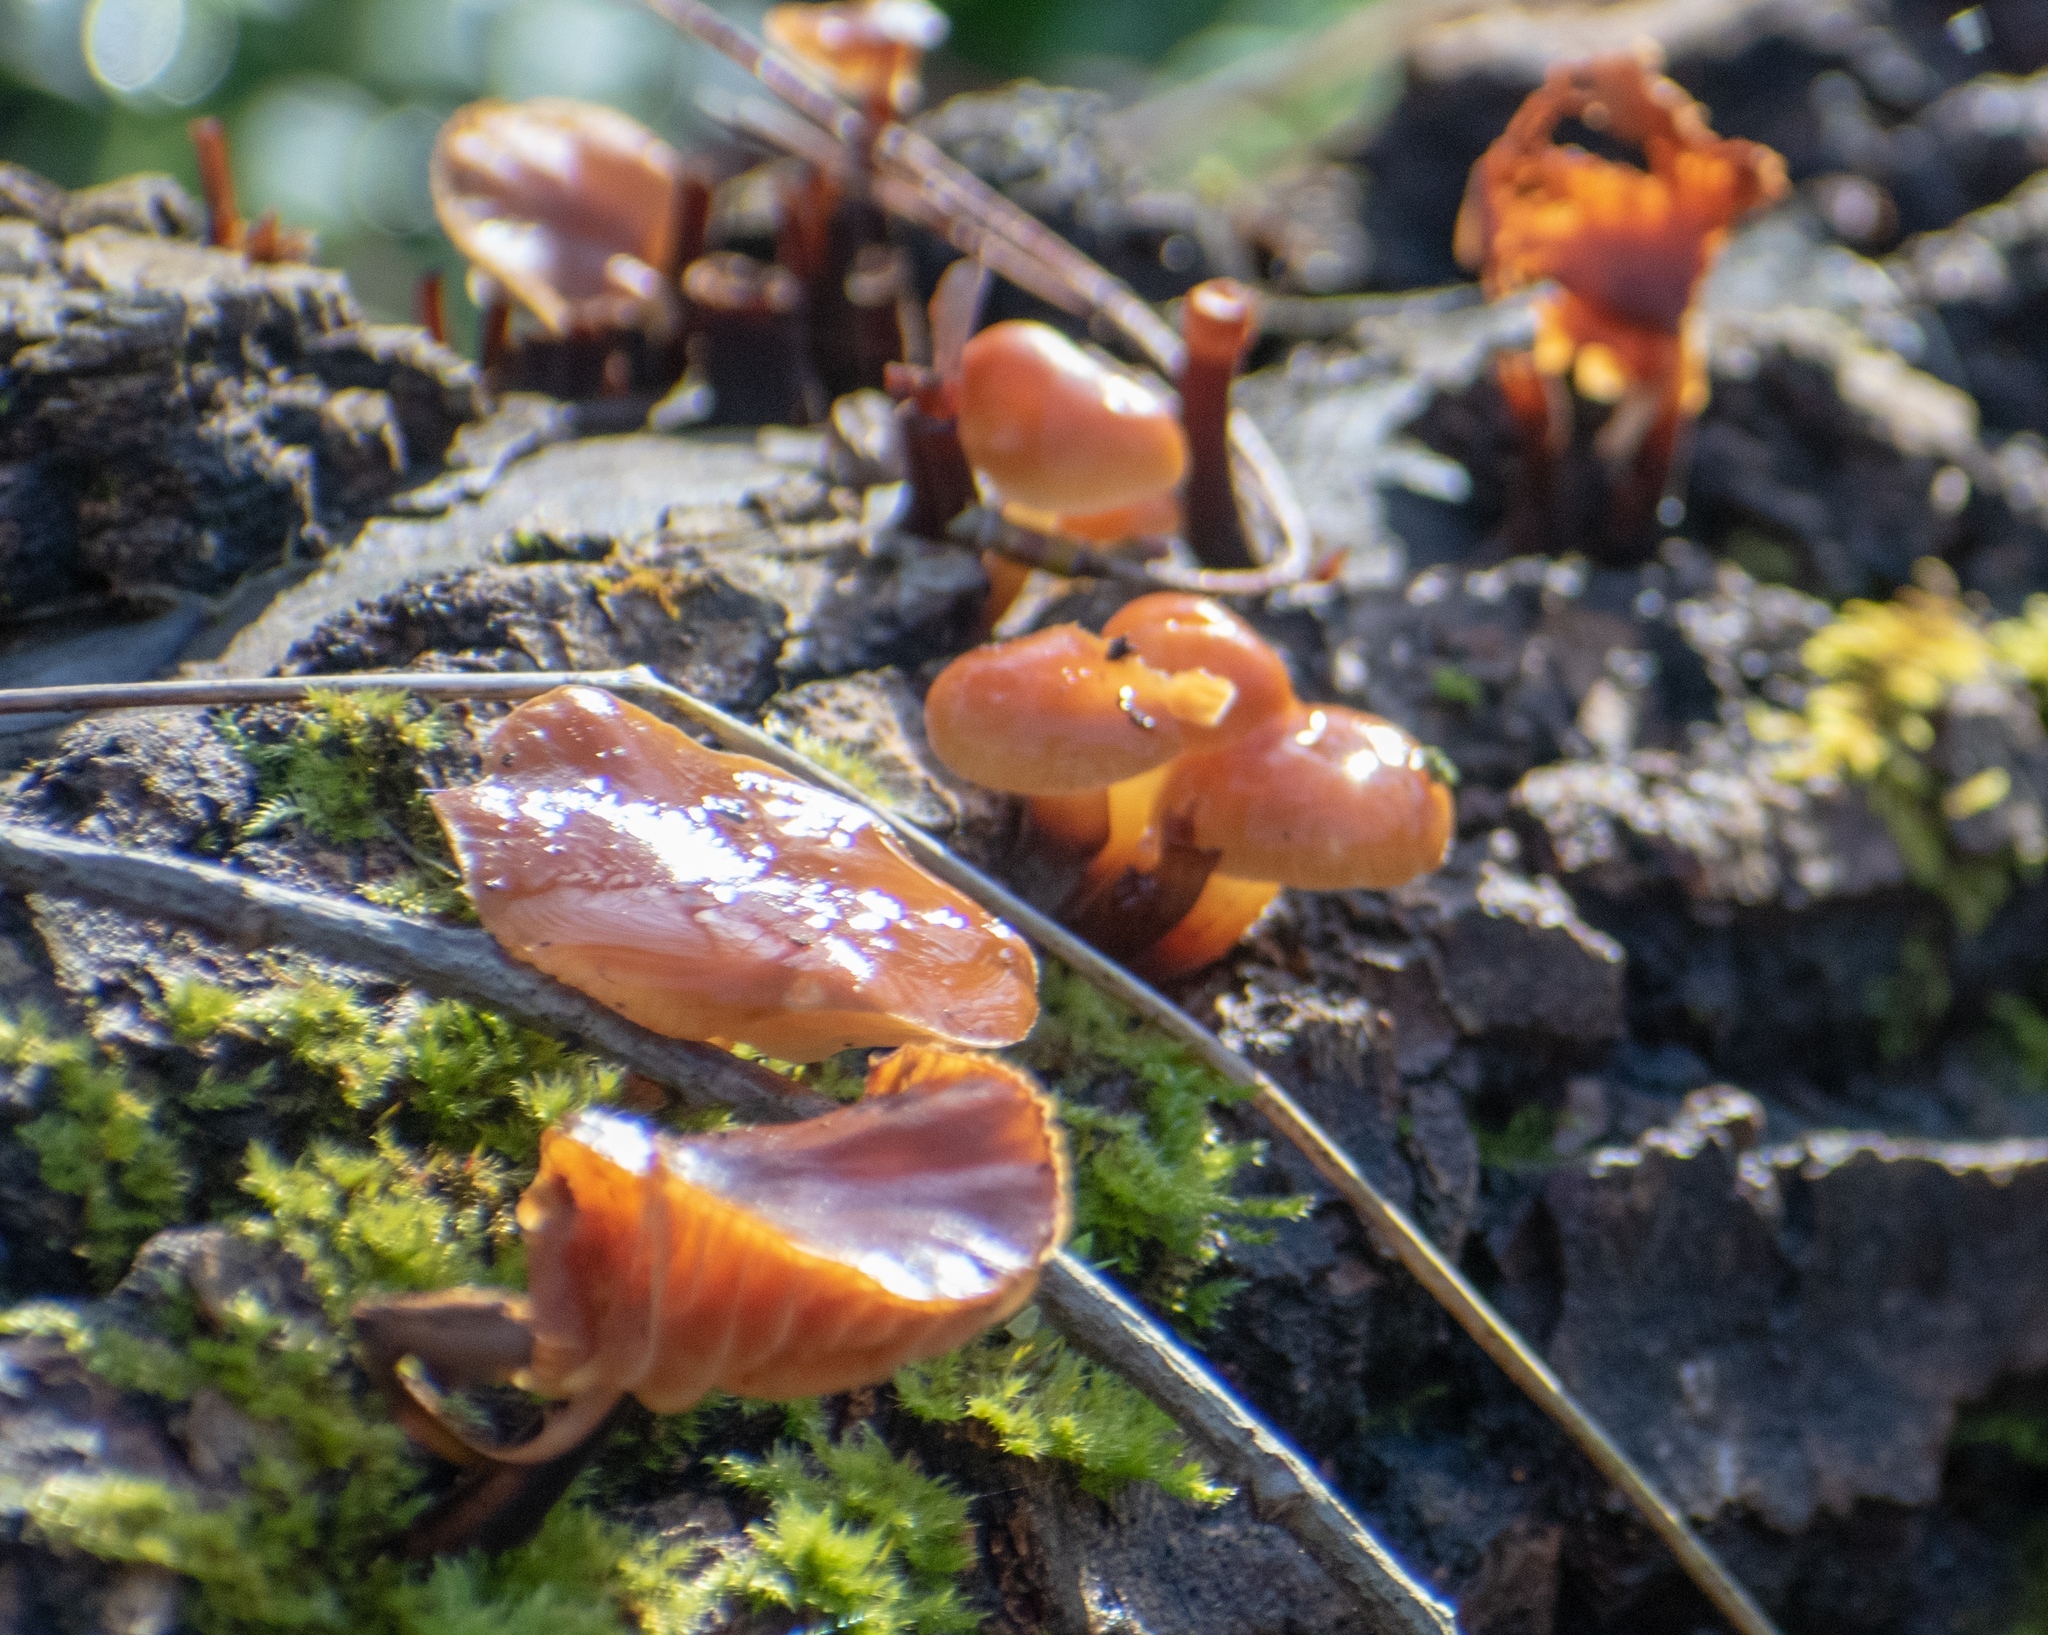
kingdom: Fungi
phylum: Basidiomycota
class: Agaricomycetes
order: Agaricales
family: Physalacriaceae
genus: Flammulina
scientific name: Flammulina
